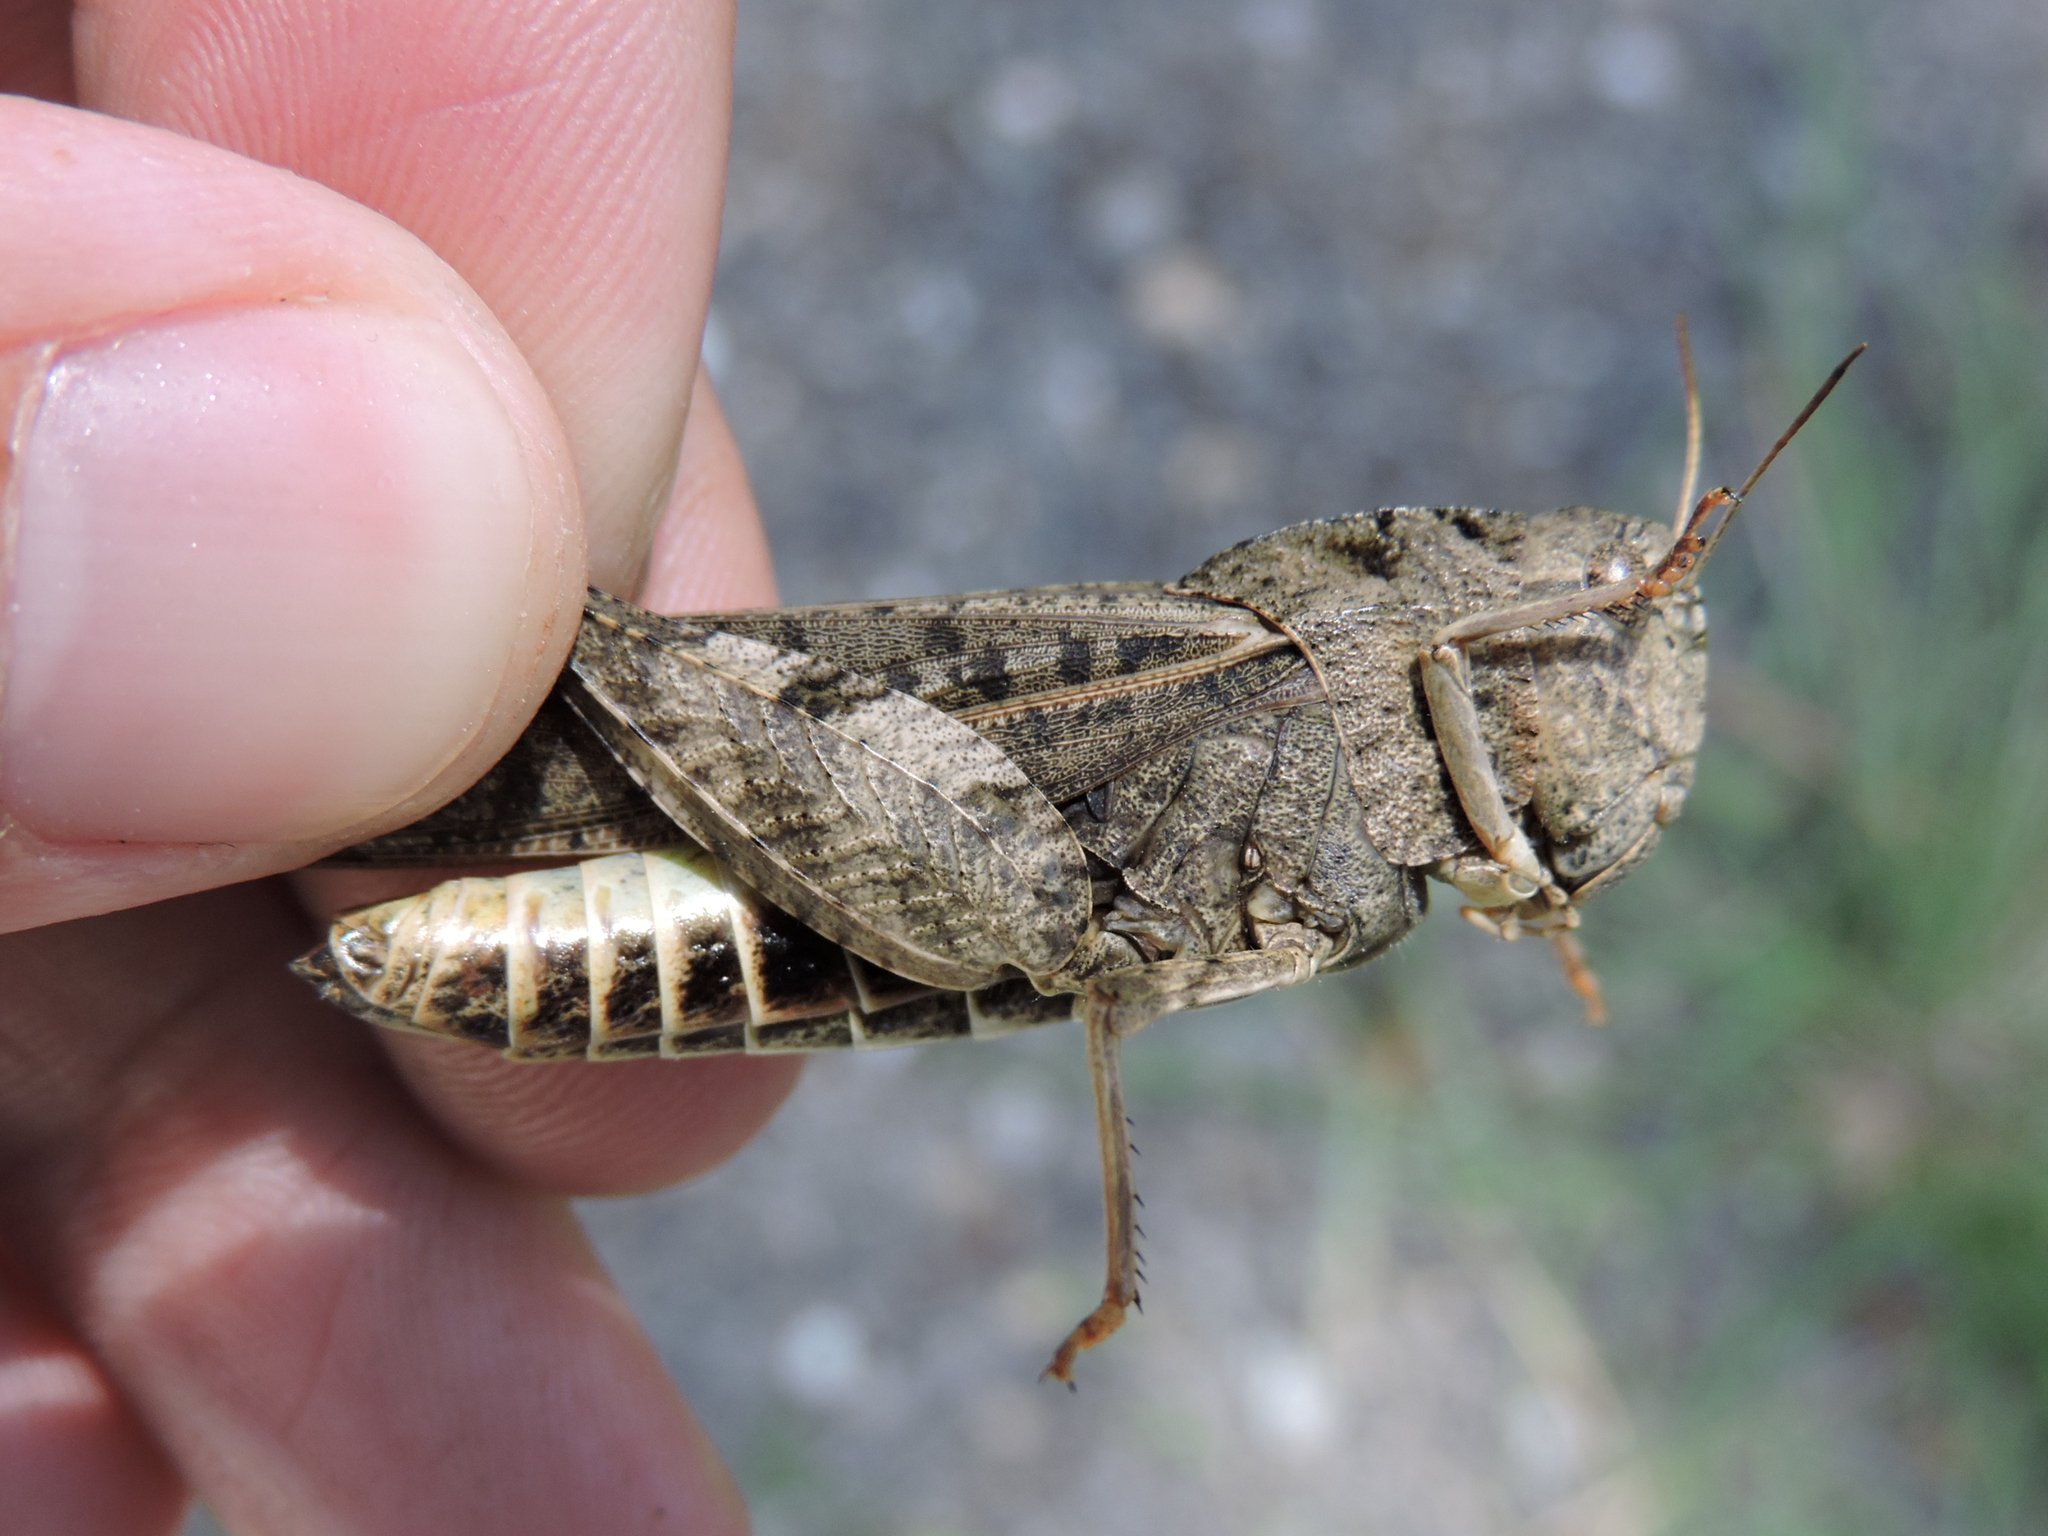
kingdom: Animalia
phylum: Arthropoda
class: Insecta
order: Orthoptera
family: Acrididae
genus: Arphia
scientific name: Arphia simplex
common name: Plains yellow-winged grasshopper
